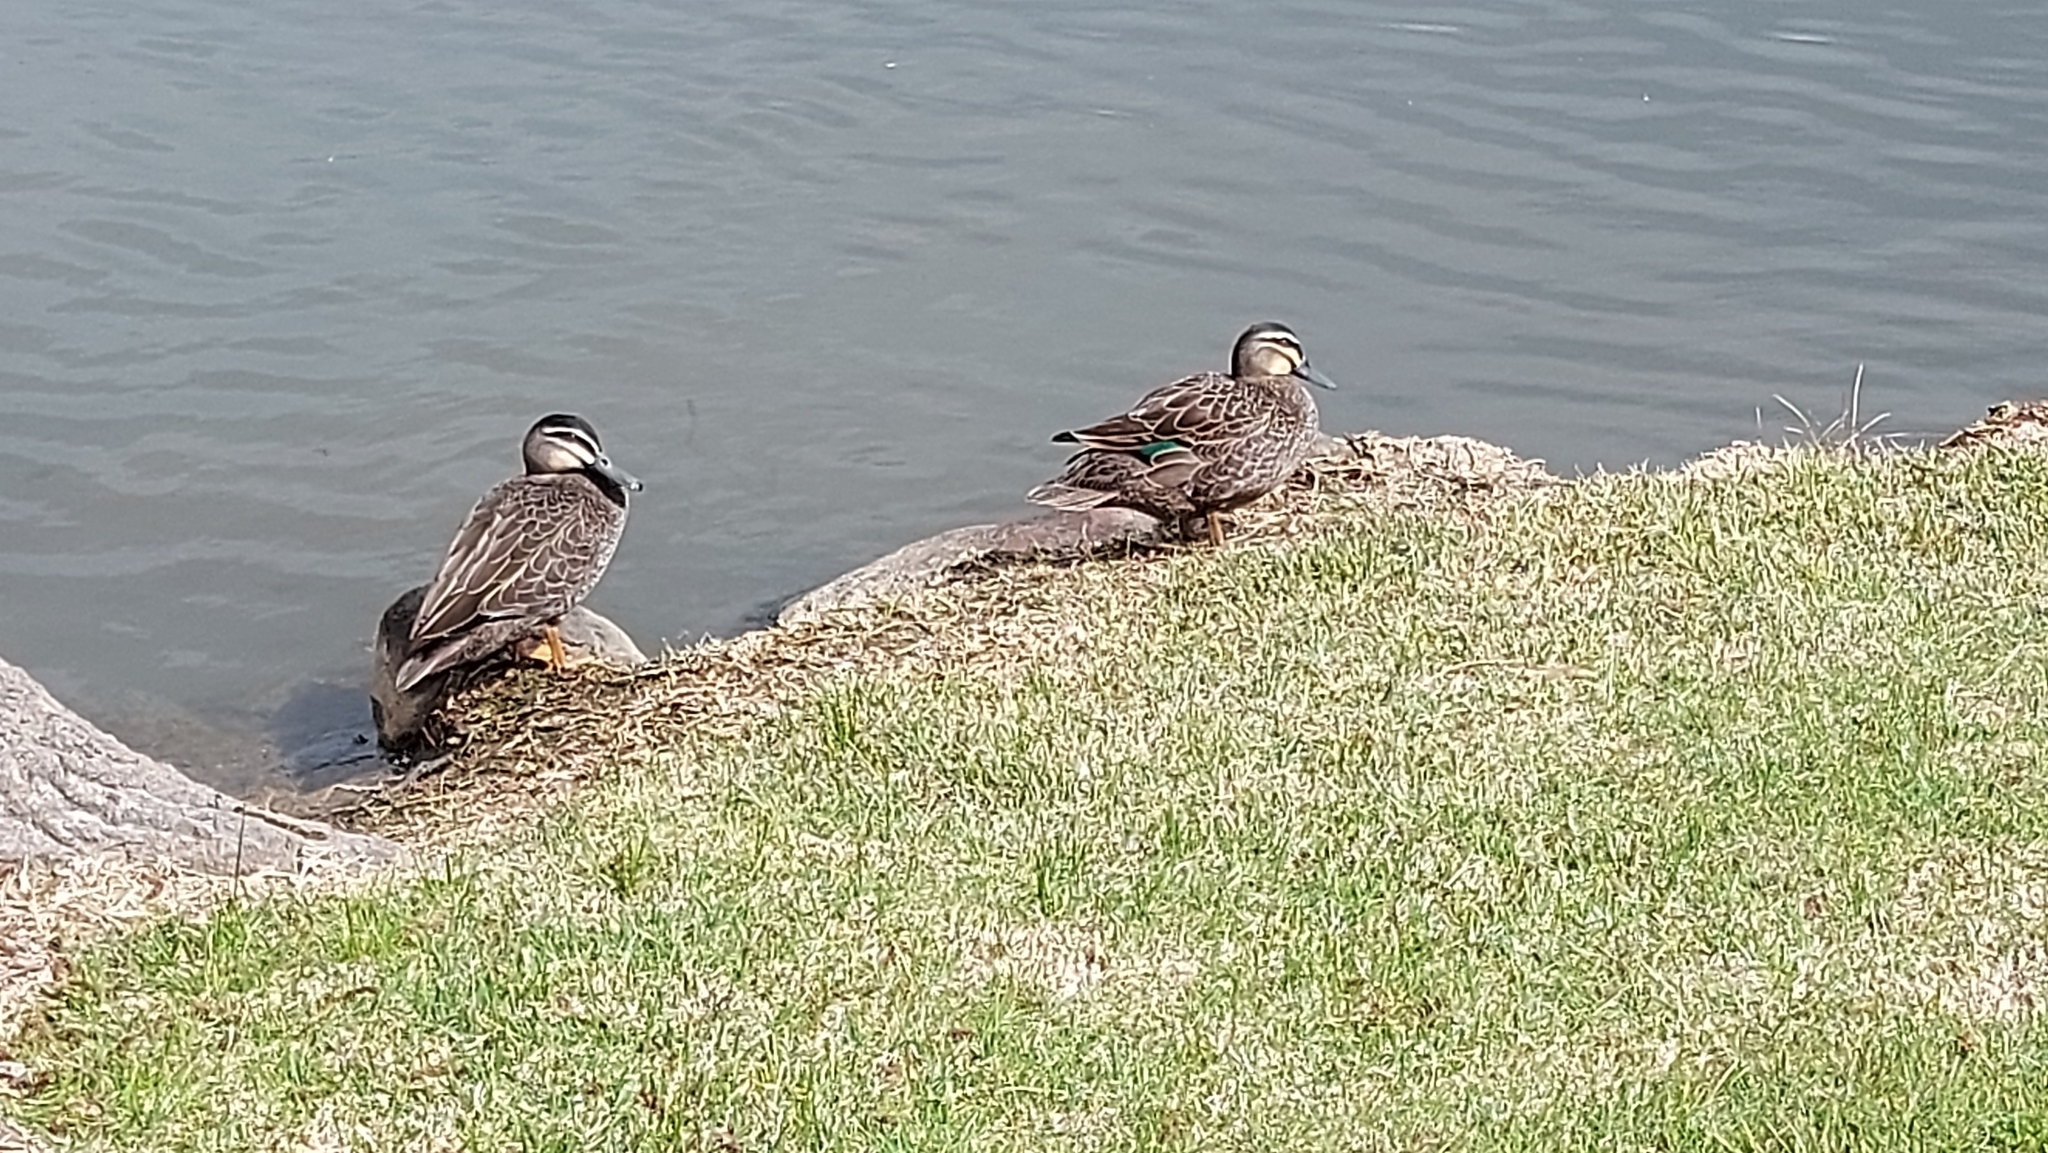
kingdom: Animalia
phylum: Chordata
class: Aves
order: Anseriformes
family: Anatidae
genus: Anas
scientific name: Anas
